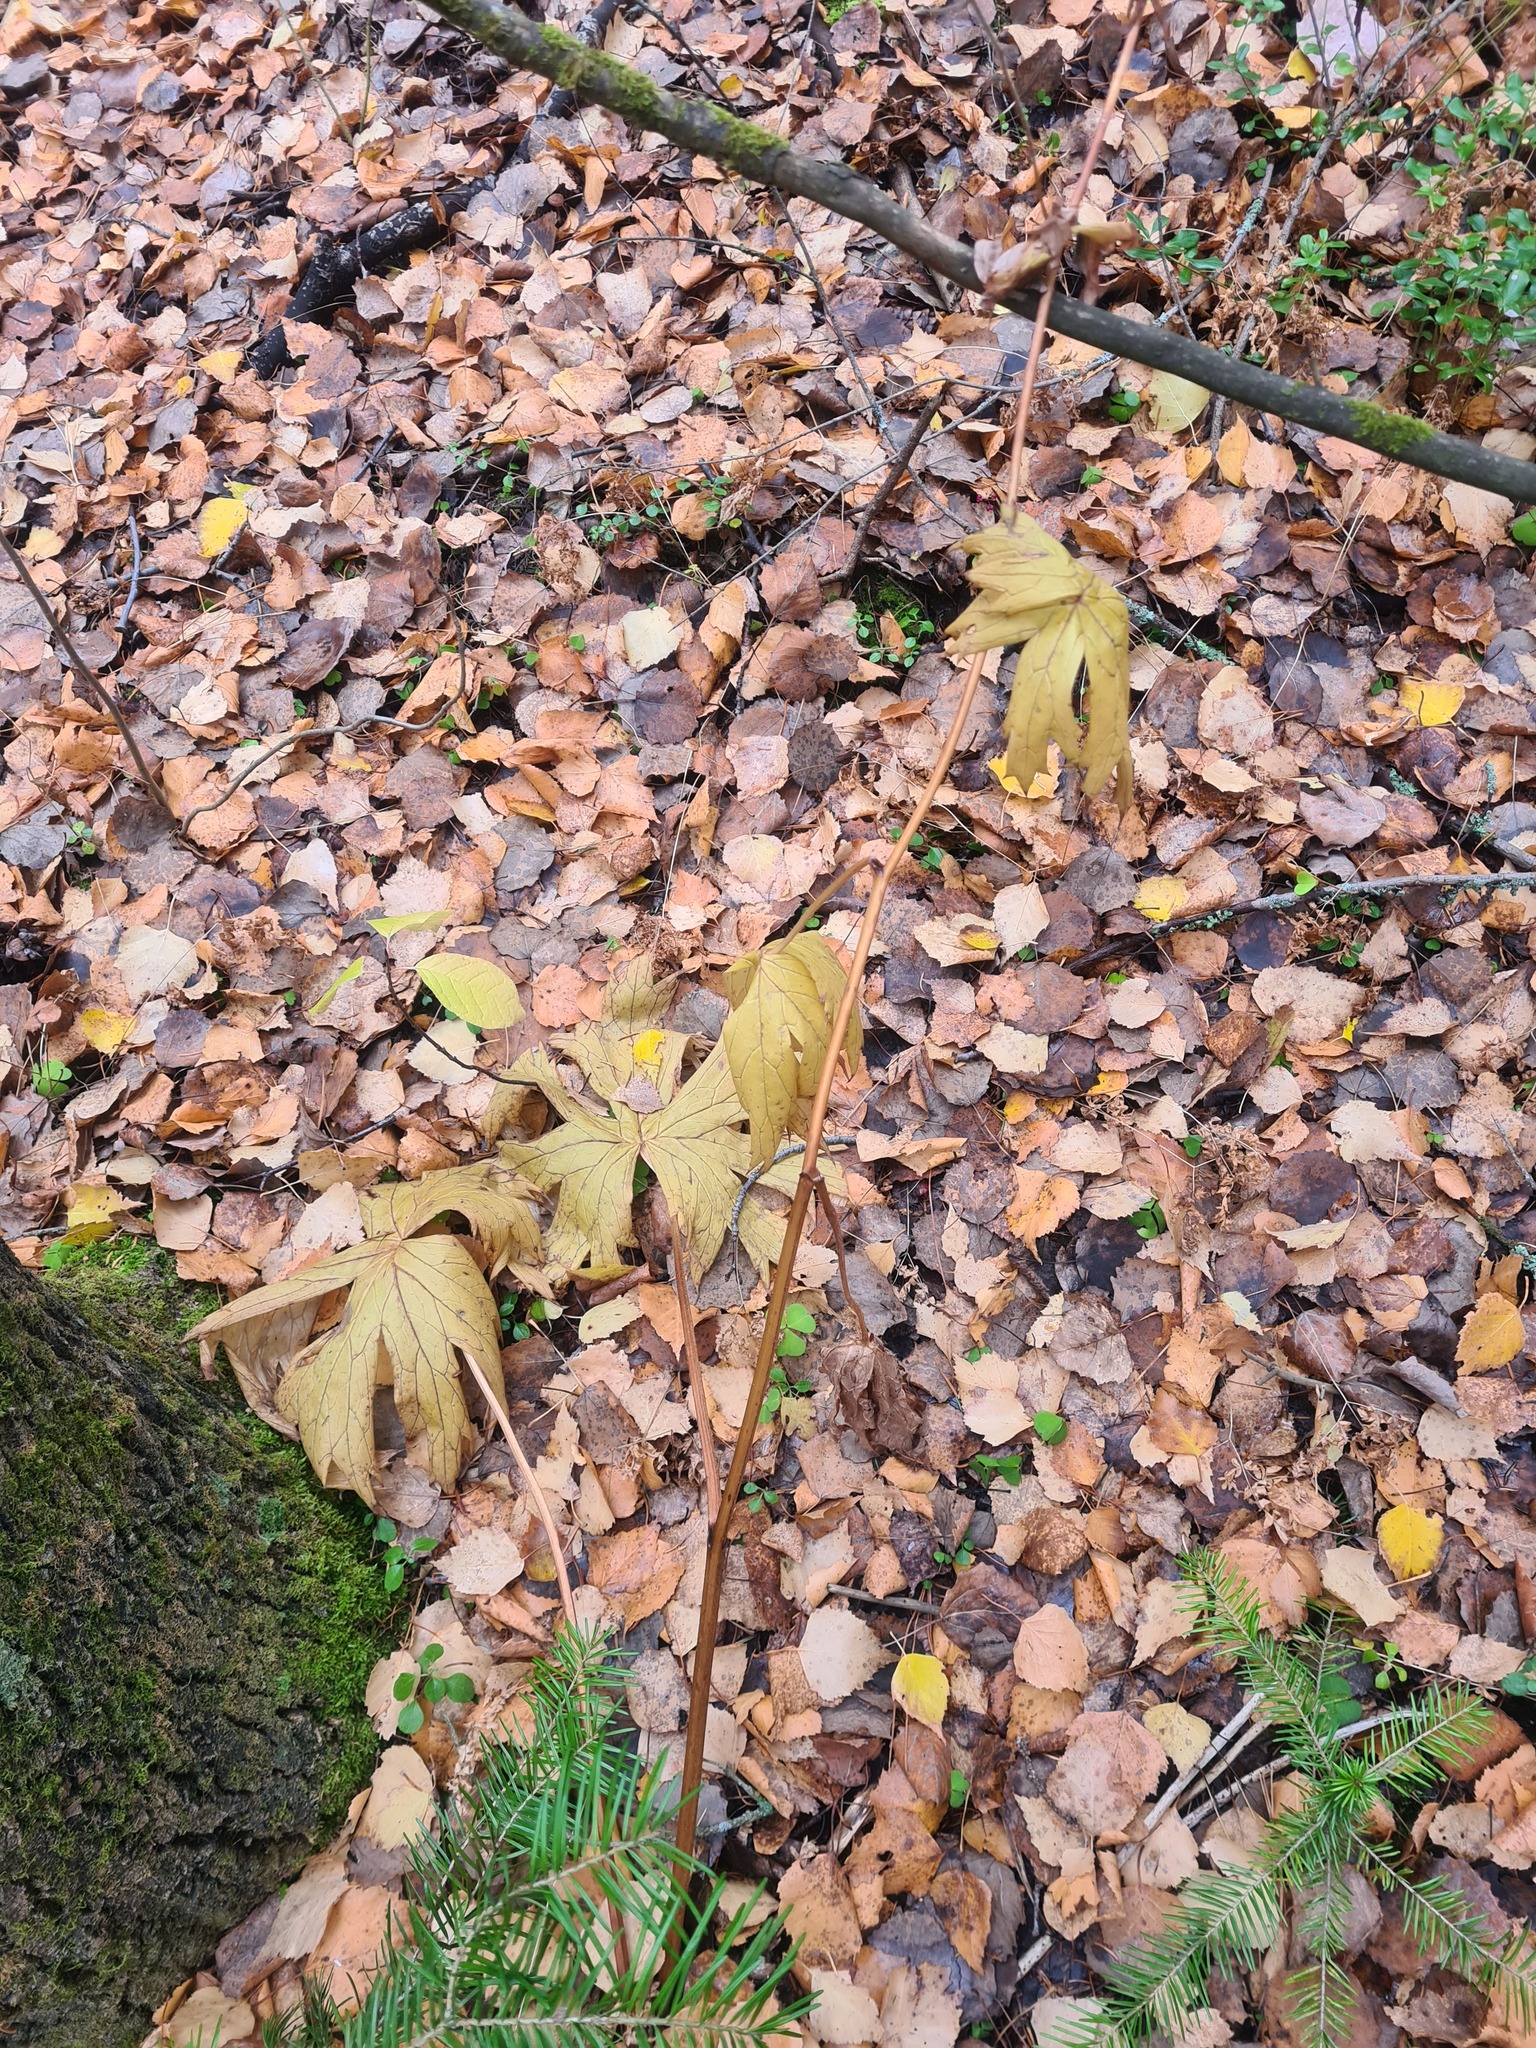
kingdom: Plantae
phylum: Tracheophyta
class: Magnoliopsida
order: Ranunculales
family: Ranunculaceae
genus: Aconitum
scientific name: Aconitum septentrionale
